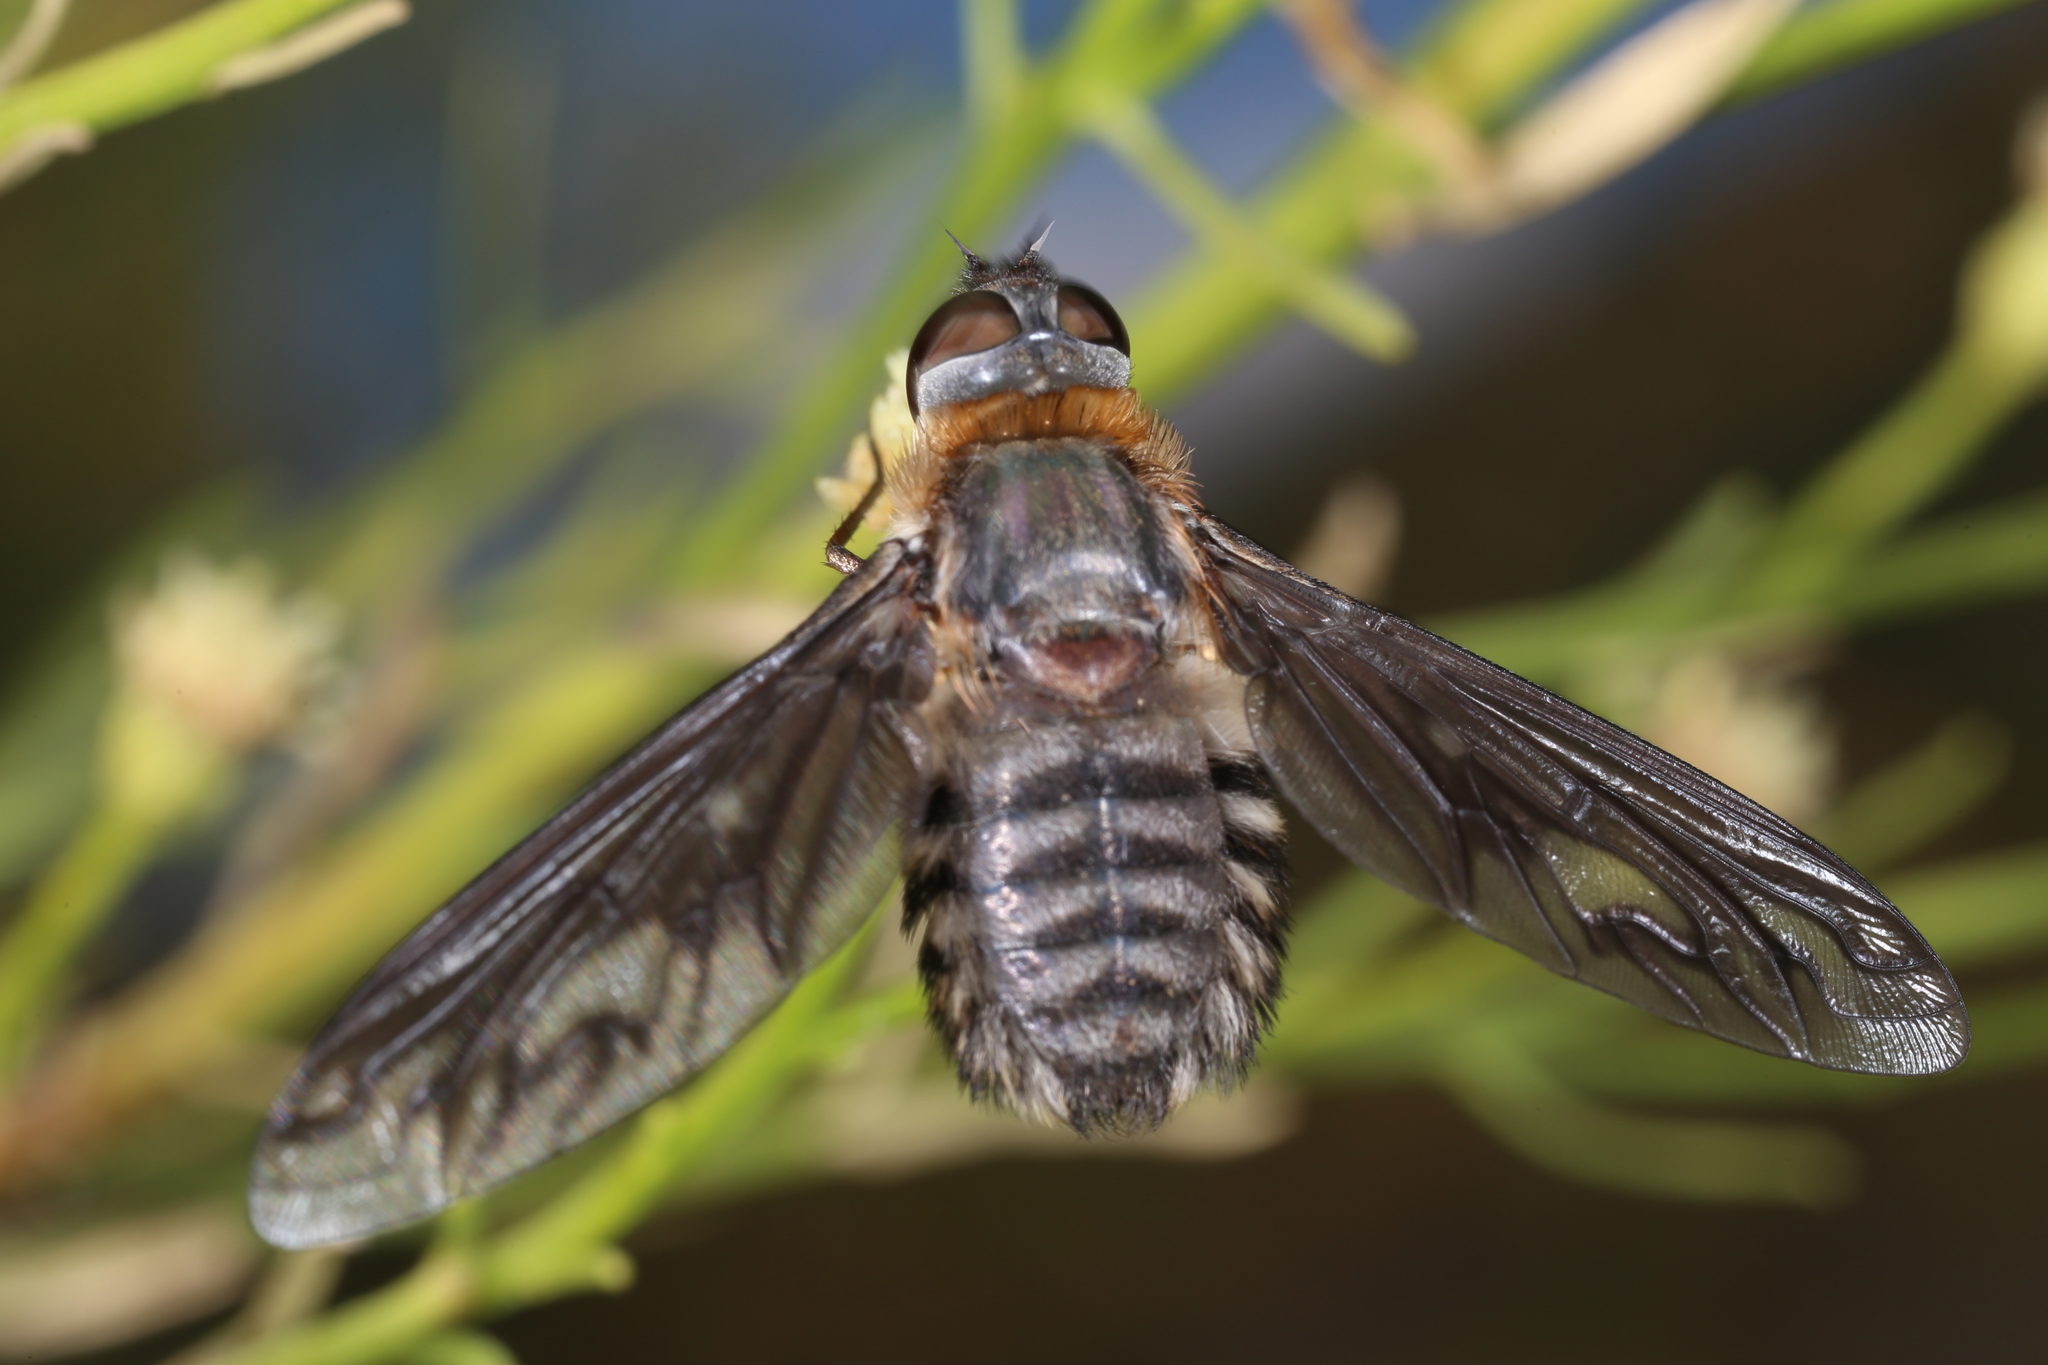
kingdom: Animalia
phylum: Arthropoda
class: Insecta
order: Diptera
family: Bombyliidae
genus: Poecilanthrax
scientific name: Poecilanthrax californicus
